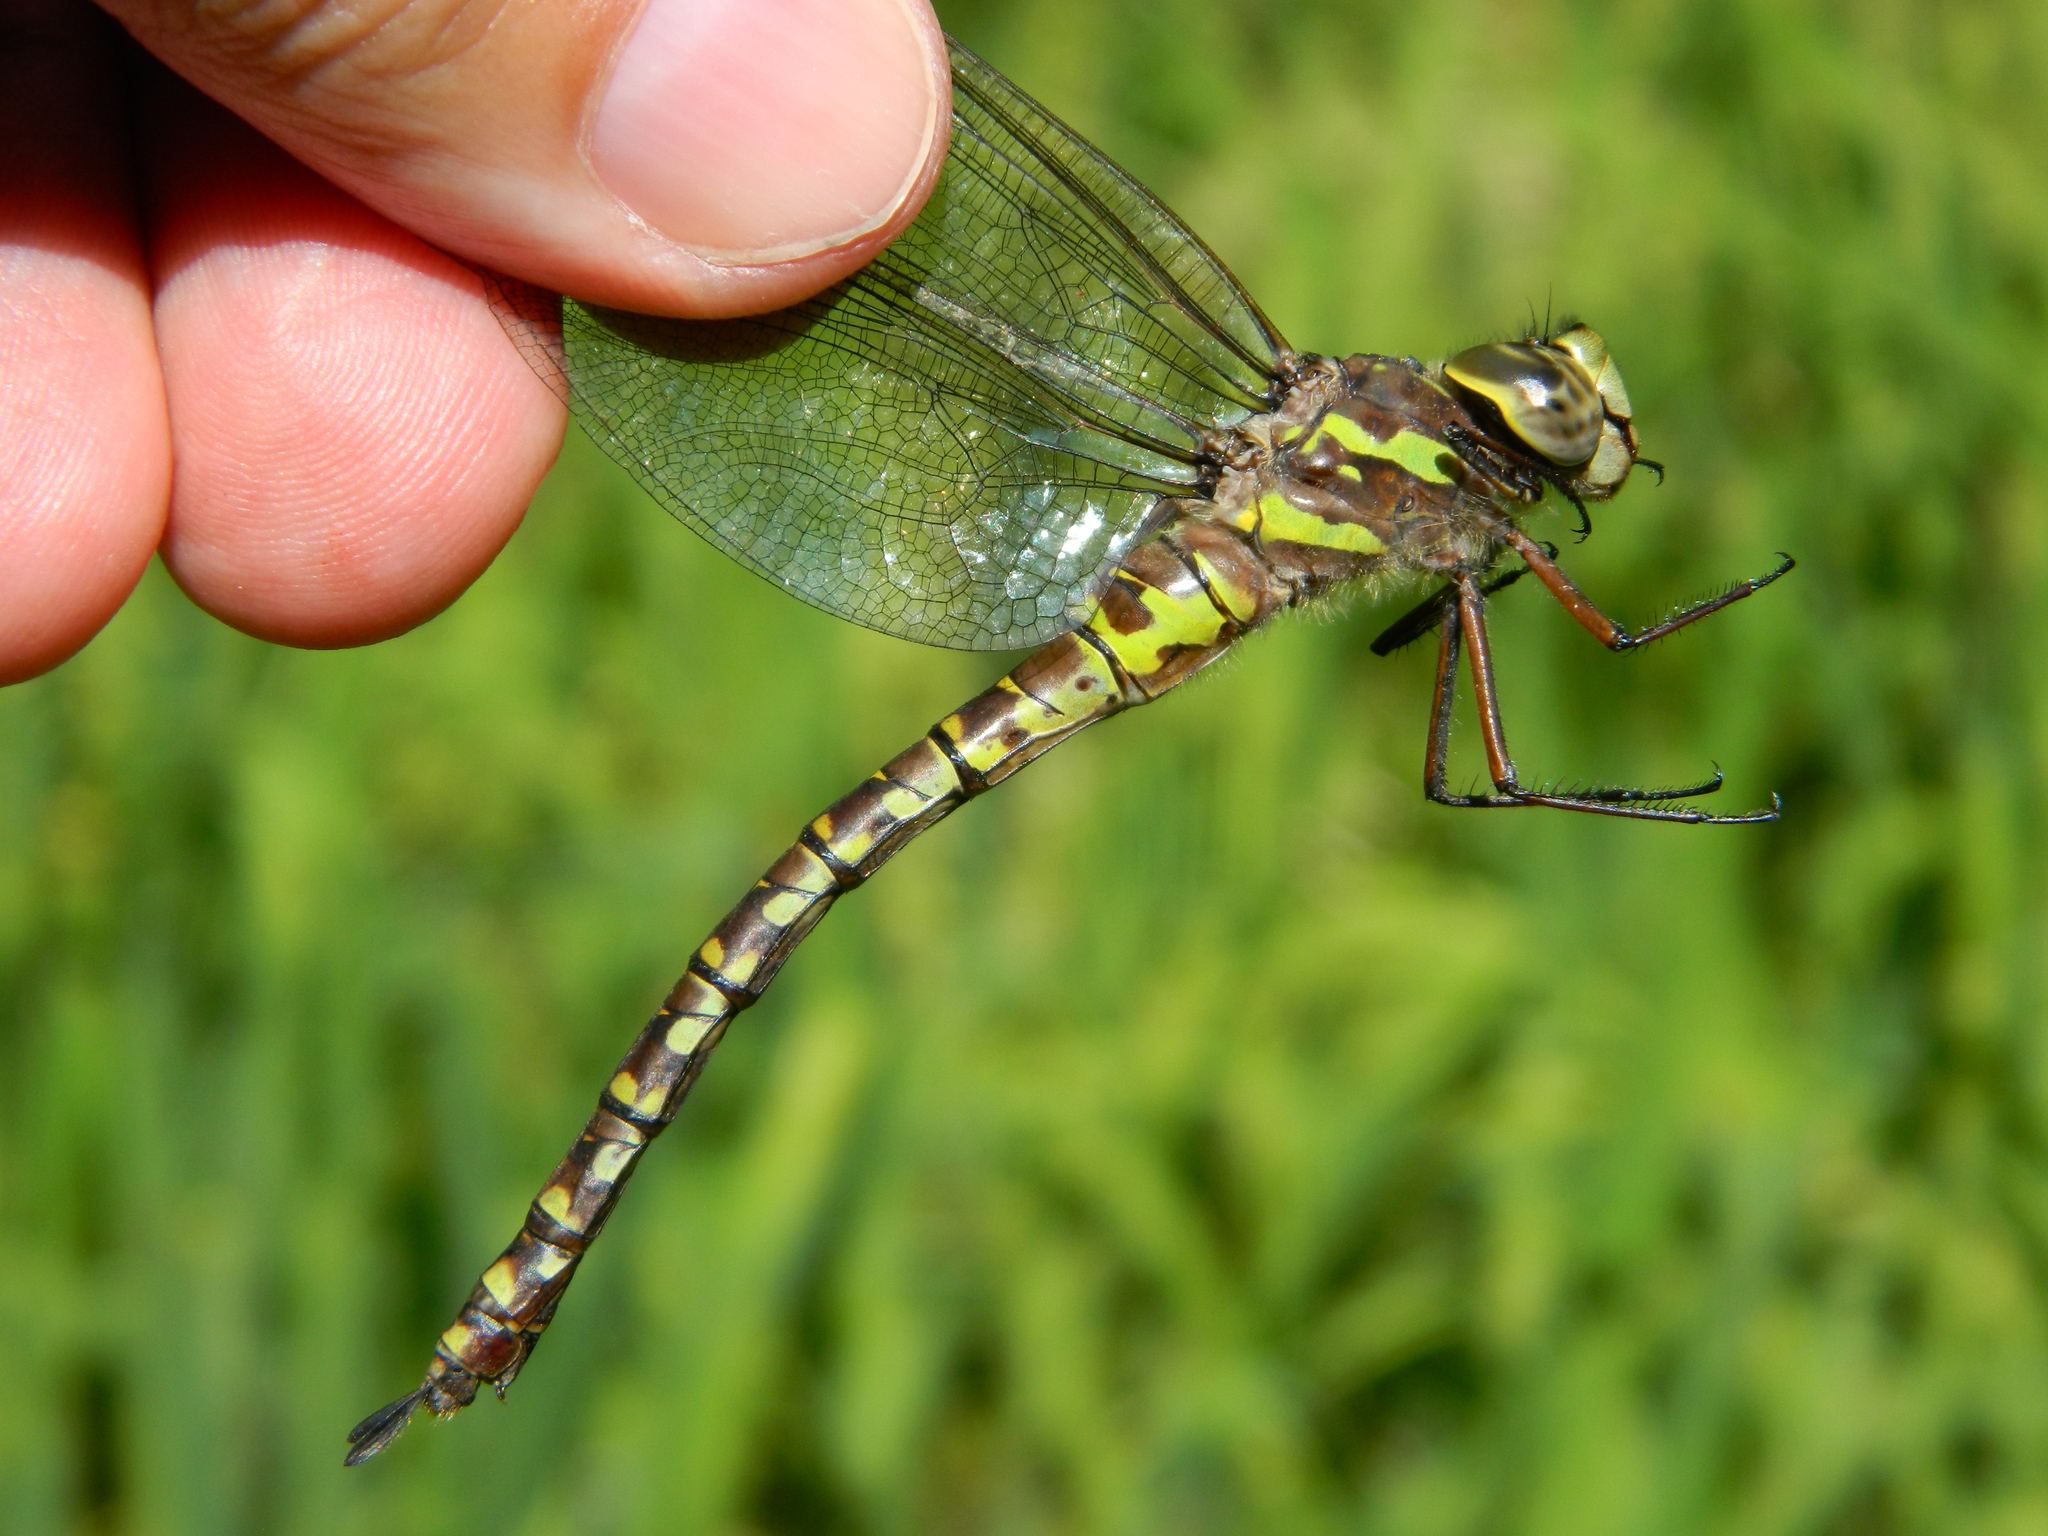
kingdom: Animalia
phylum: Arthropoda
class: Insecta
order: Odonata
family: Aeshnidae
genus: Aeshna
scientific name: Aeshna canadensis
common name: Canada darner
